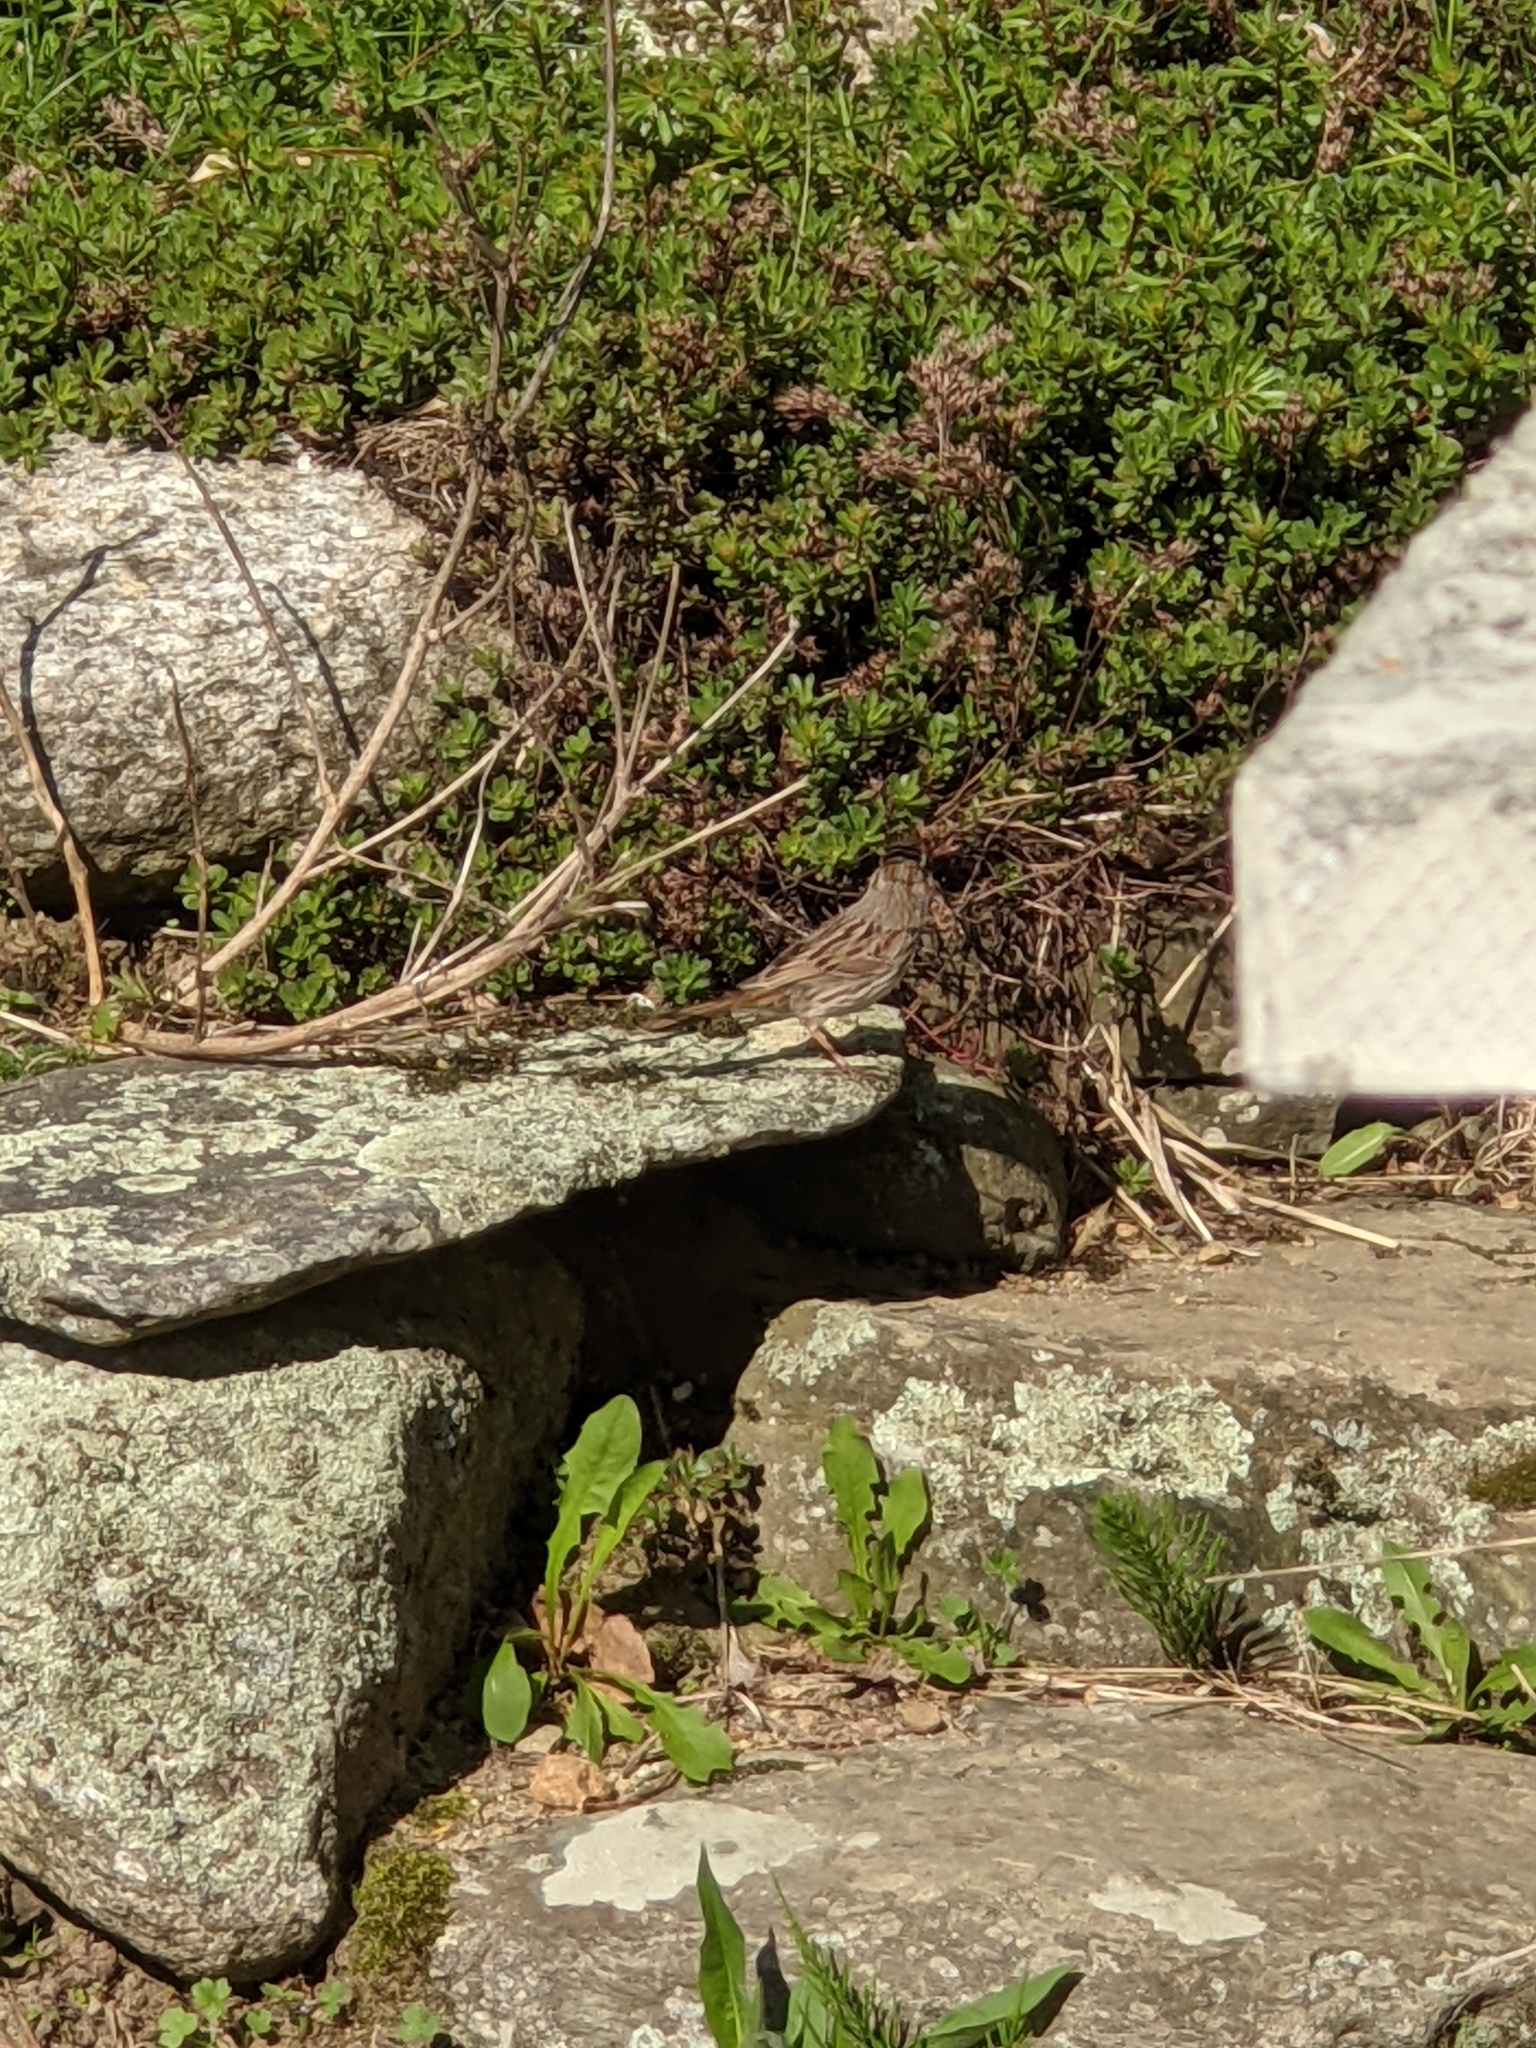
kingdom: Animalia
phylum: Chordata
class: Aves
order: Passeriformes
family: Passerellidae
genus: Melospiza
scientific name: Melospiza melodia
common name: Song sparrow
